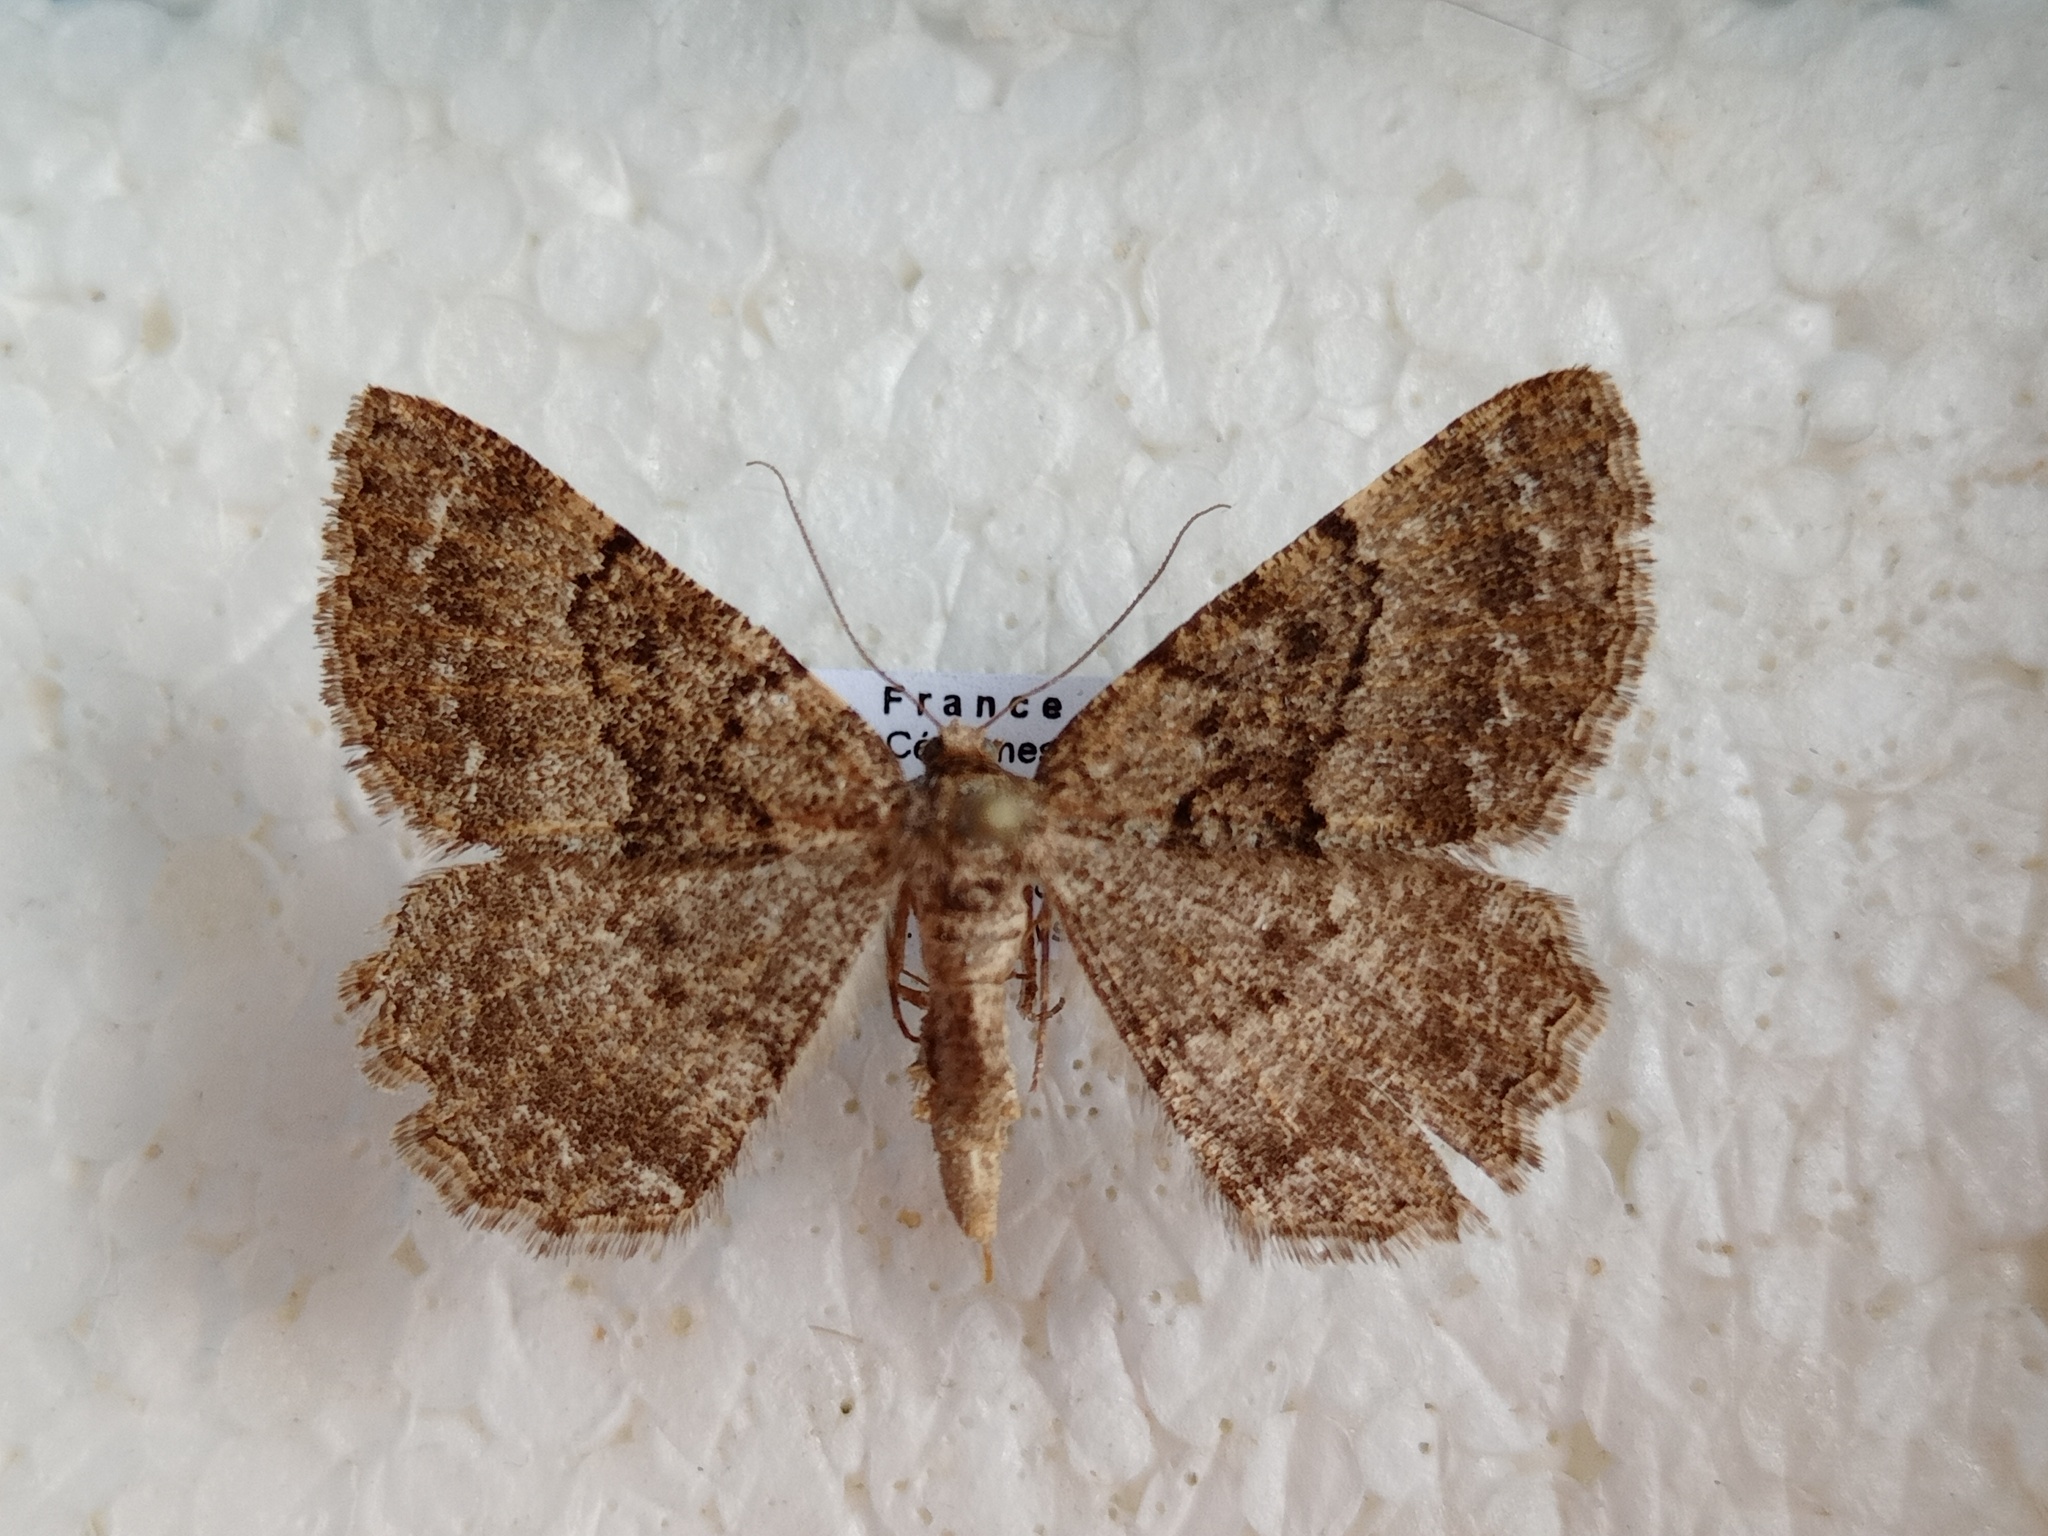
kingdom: Animalia
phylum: Arthropoda
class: Insecta
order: Lepidoptera
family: Geometridae
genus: Selidosema
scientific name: Selidosema taeniolaria
